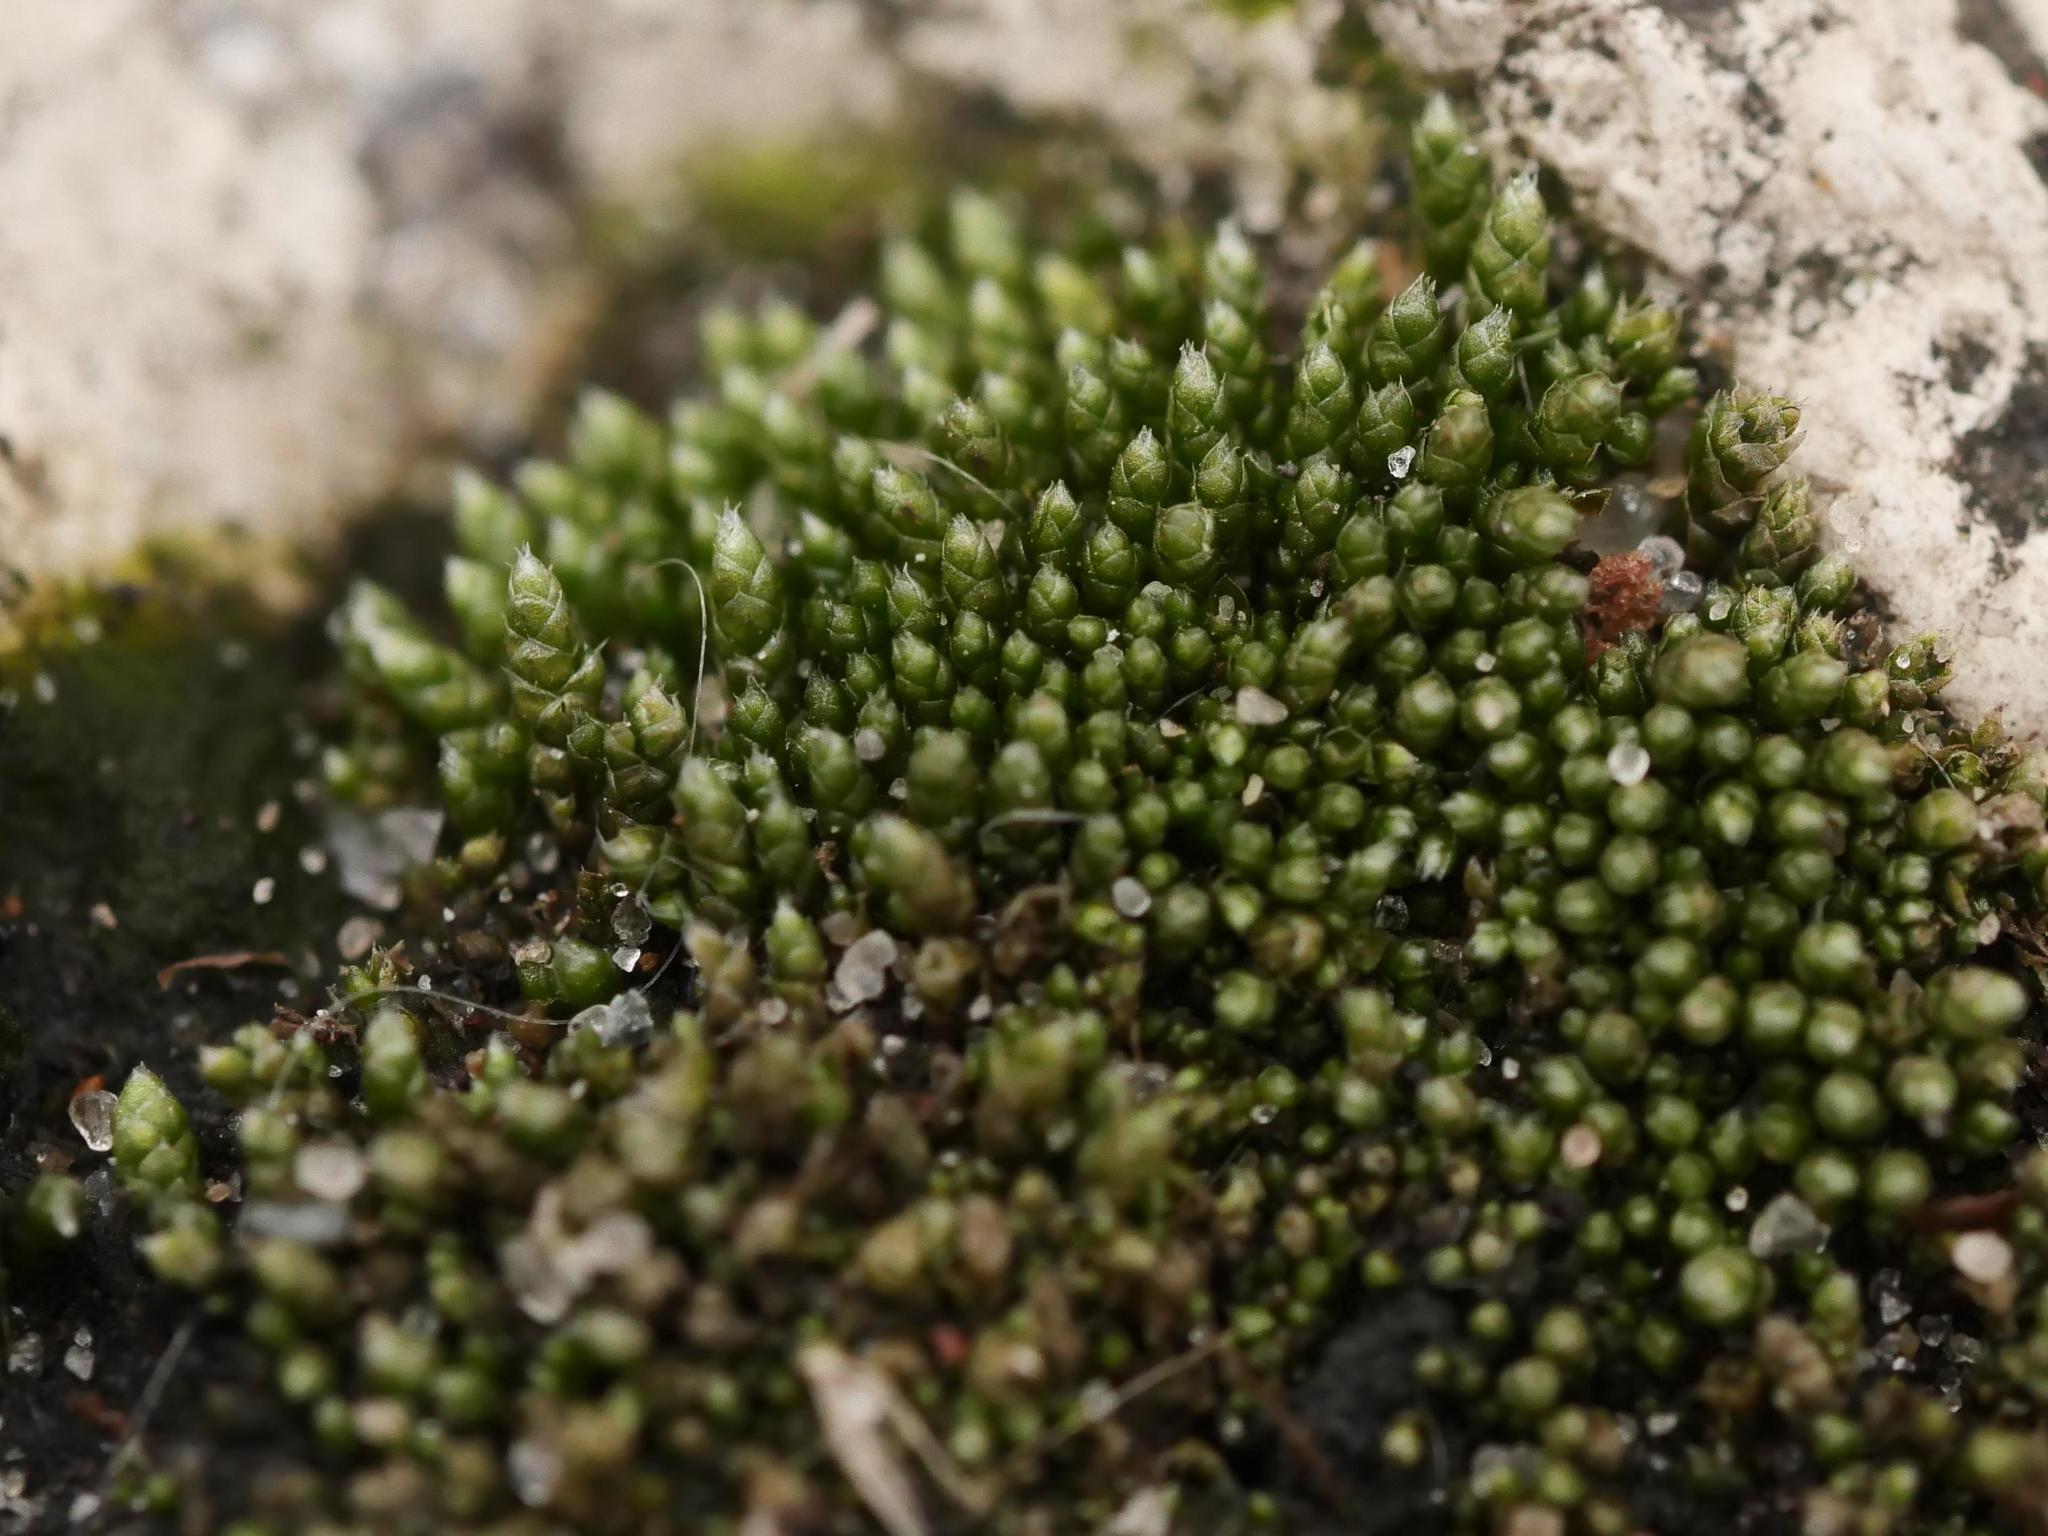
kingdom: Plantae
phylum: Bryophyta
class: Bryopsida
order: Bryales
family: Bryaceae
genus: Bryum
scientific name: Bryum argenteum
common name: Silver-moss
